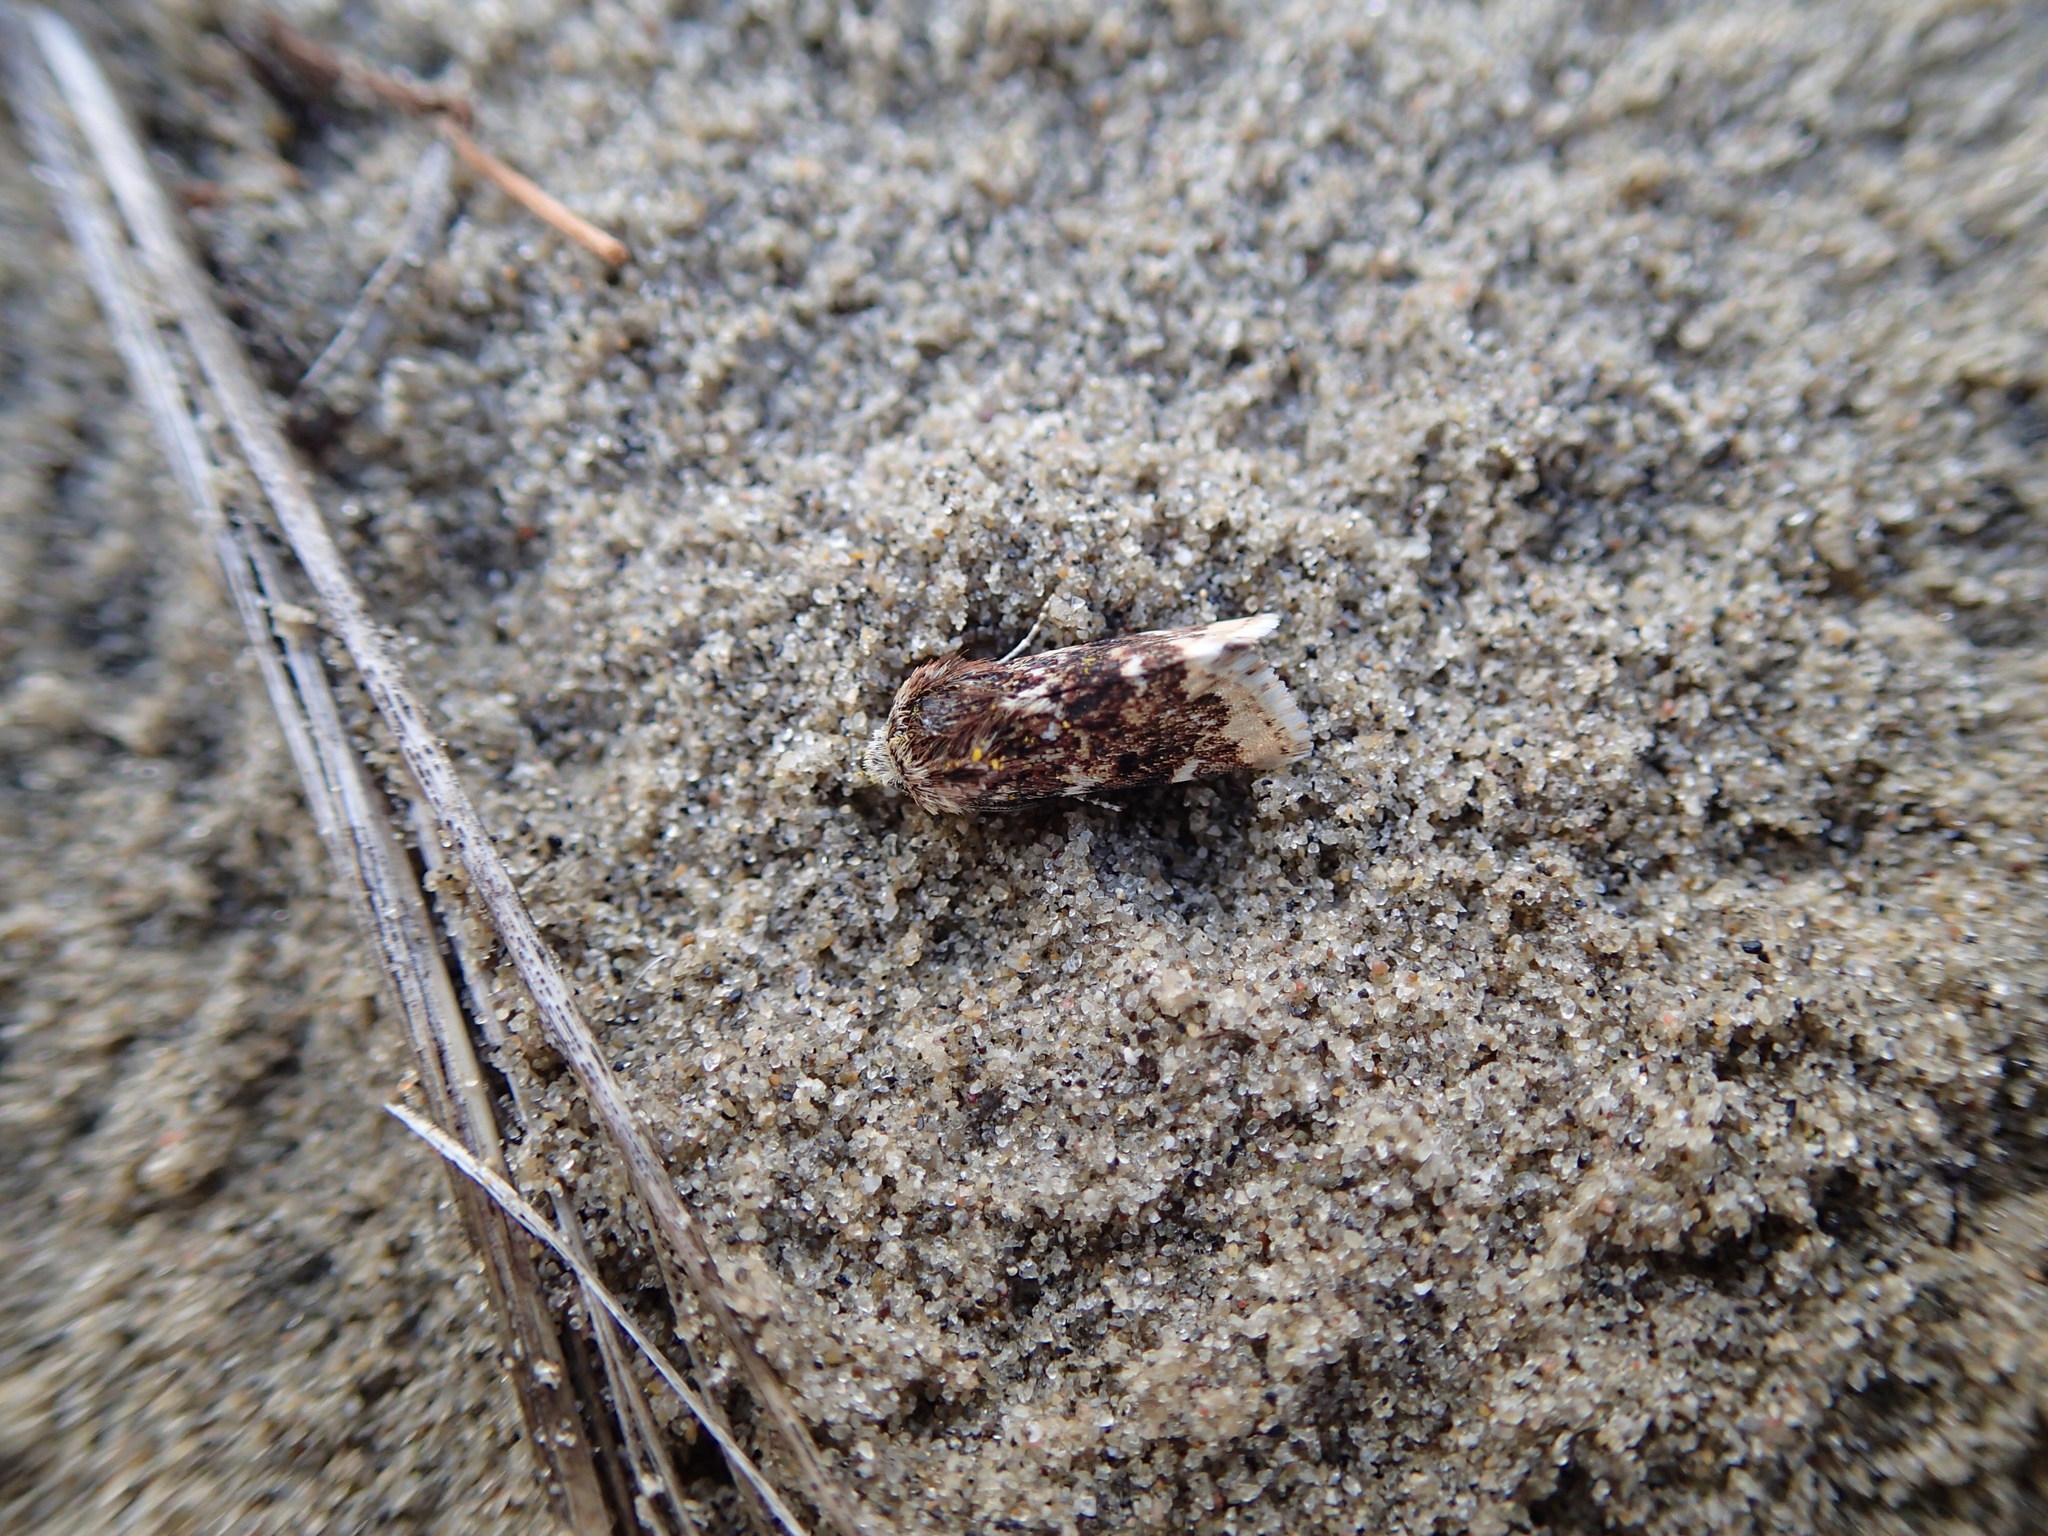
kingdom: Animalia
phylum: Arthropoda
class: Insecta
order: Lepidoptera
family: Noctuidae
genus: Schinia
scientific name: Schinia avemensis
